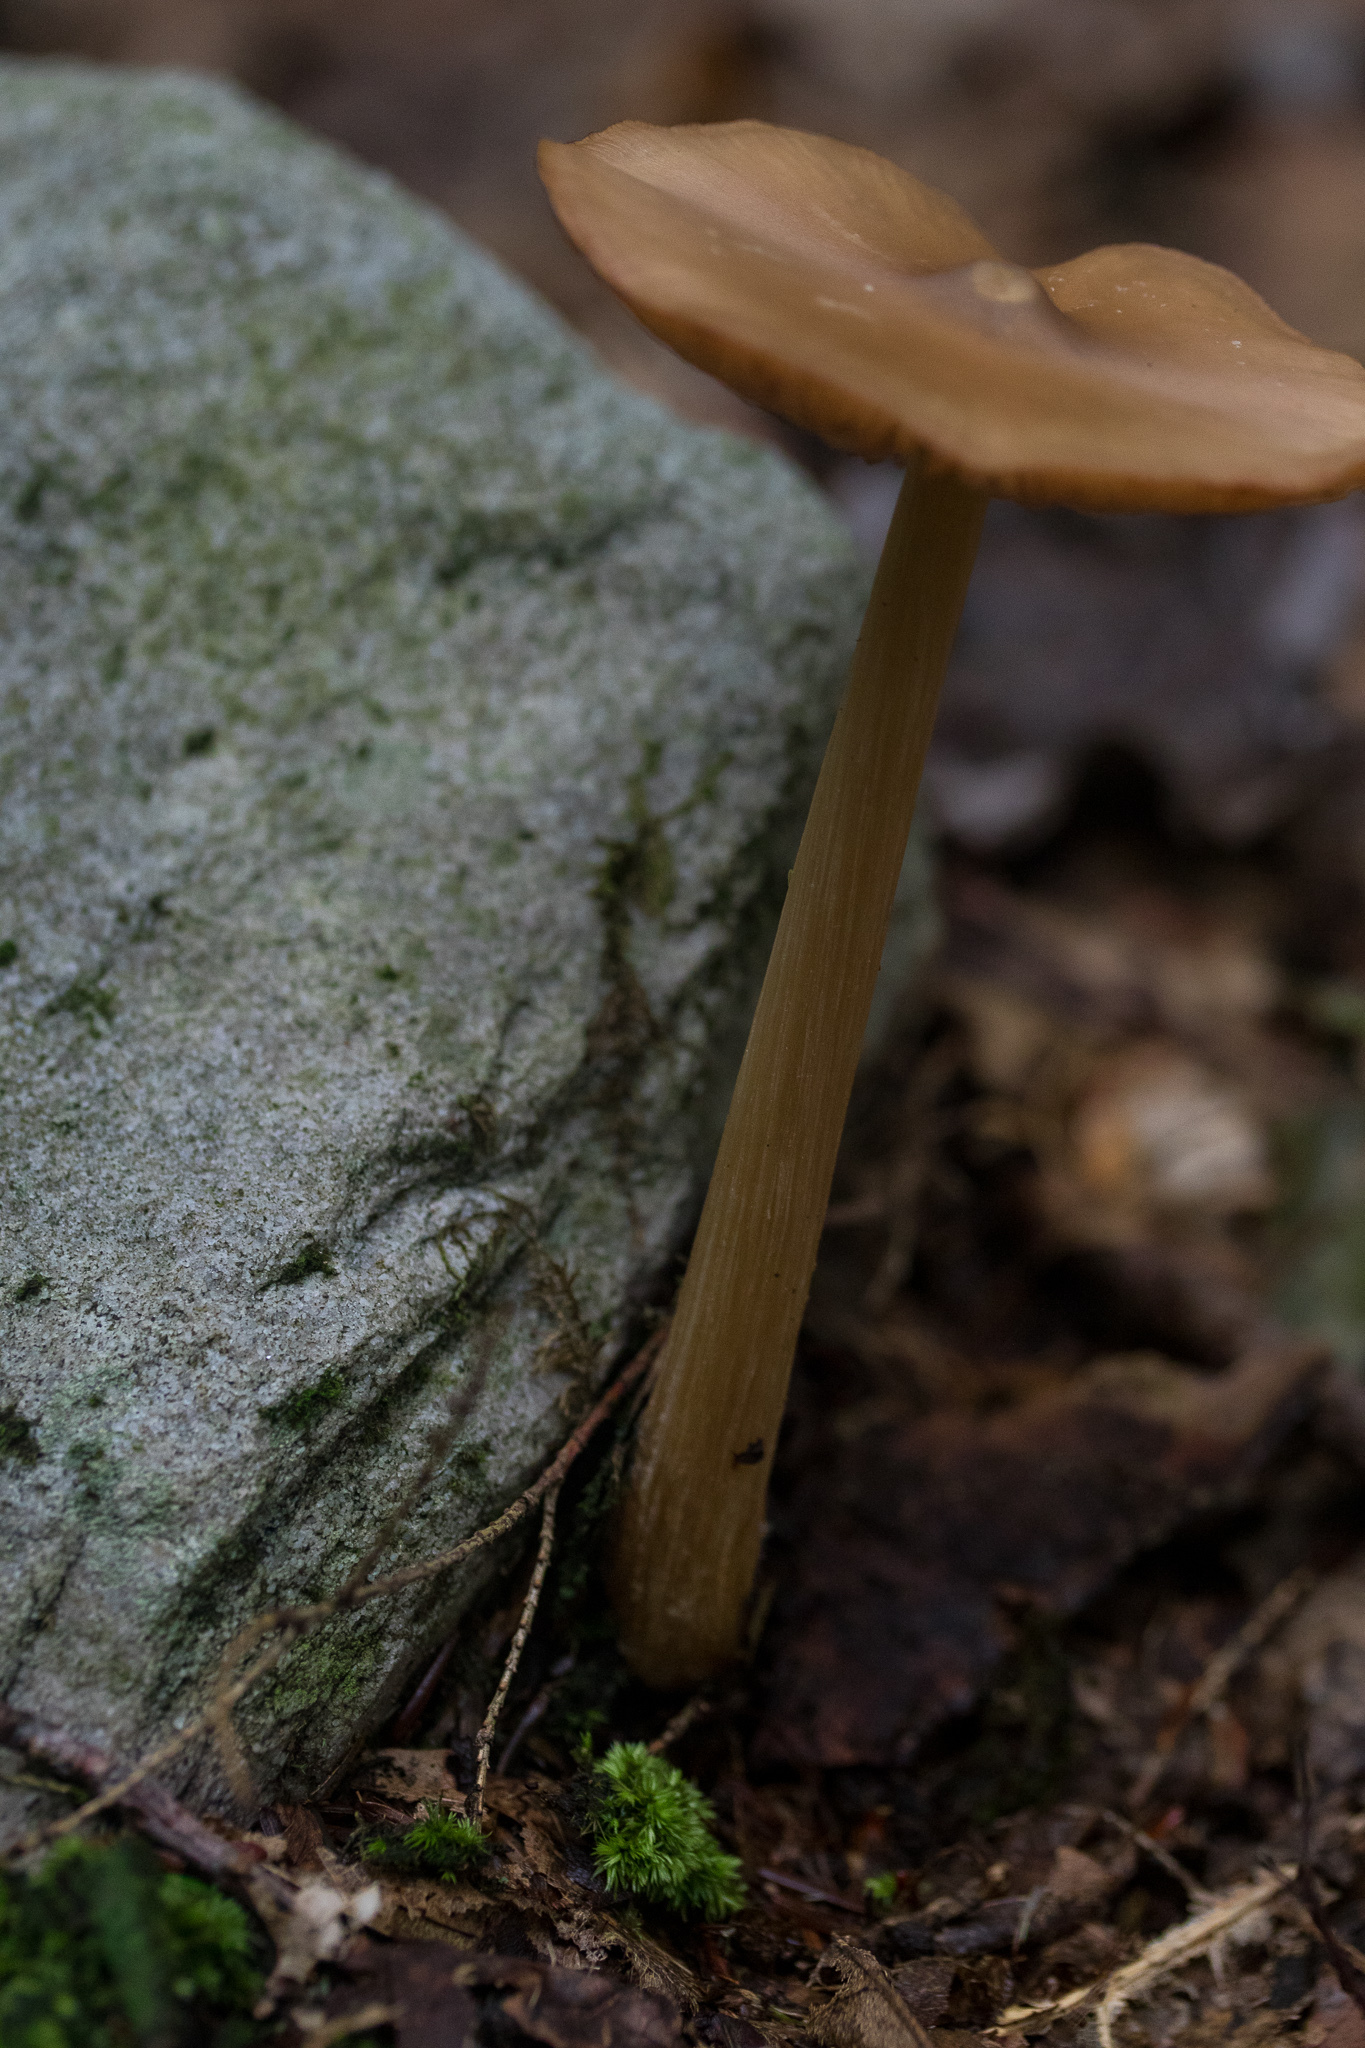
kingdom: Fungi
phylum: Basidiomycota
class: Agaricomycetes
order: Agaricales
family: Entolomataceae
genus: Entoloma
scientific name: Entoloma strictius
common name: Straight-stalked entoloma
